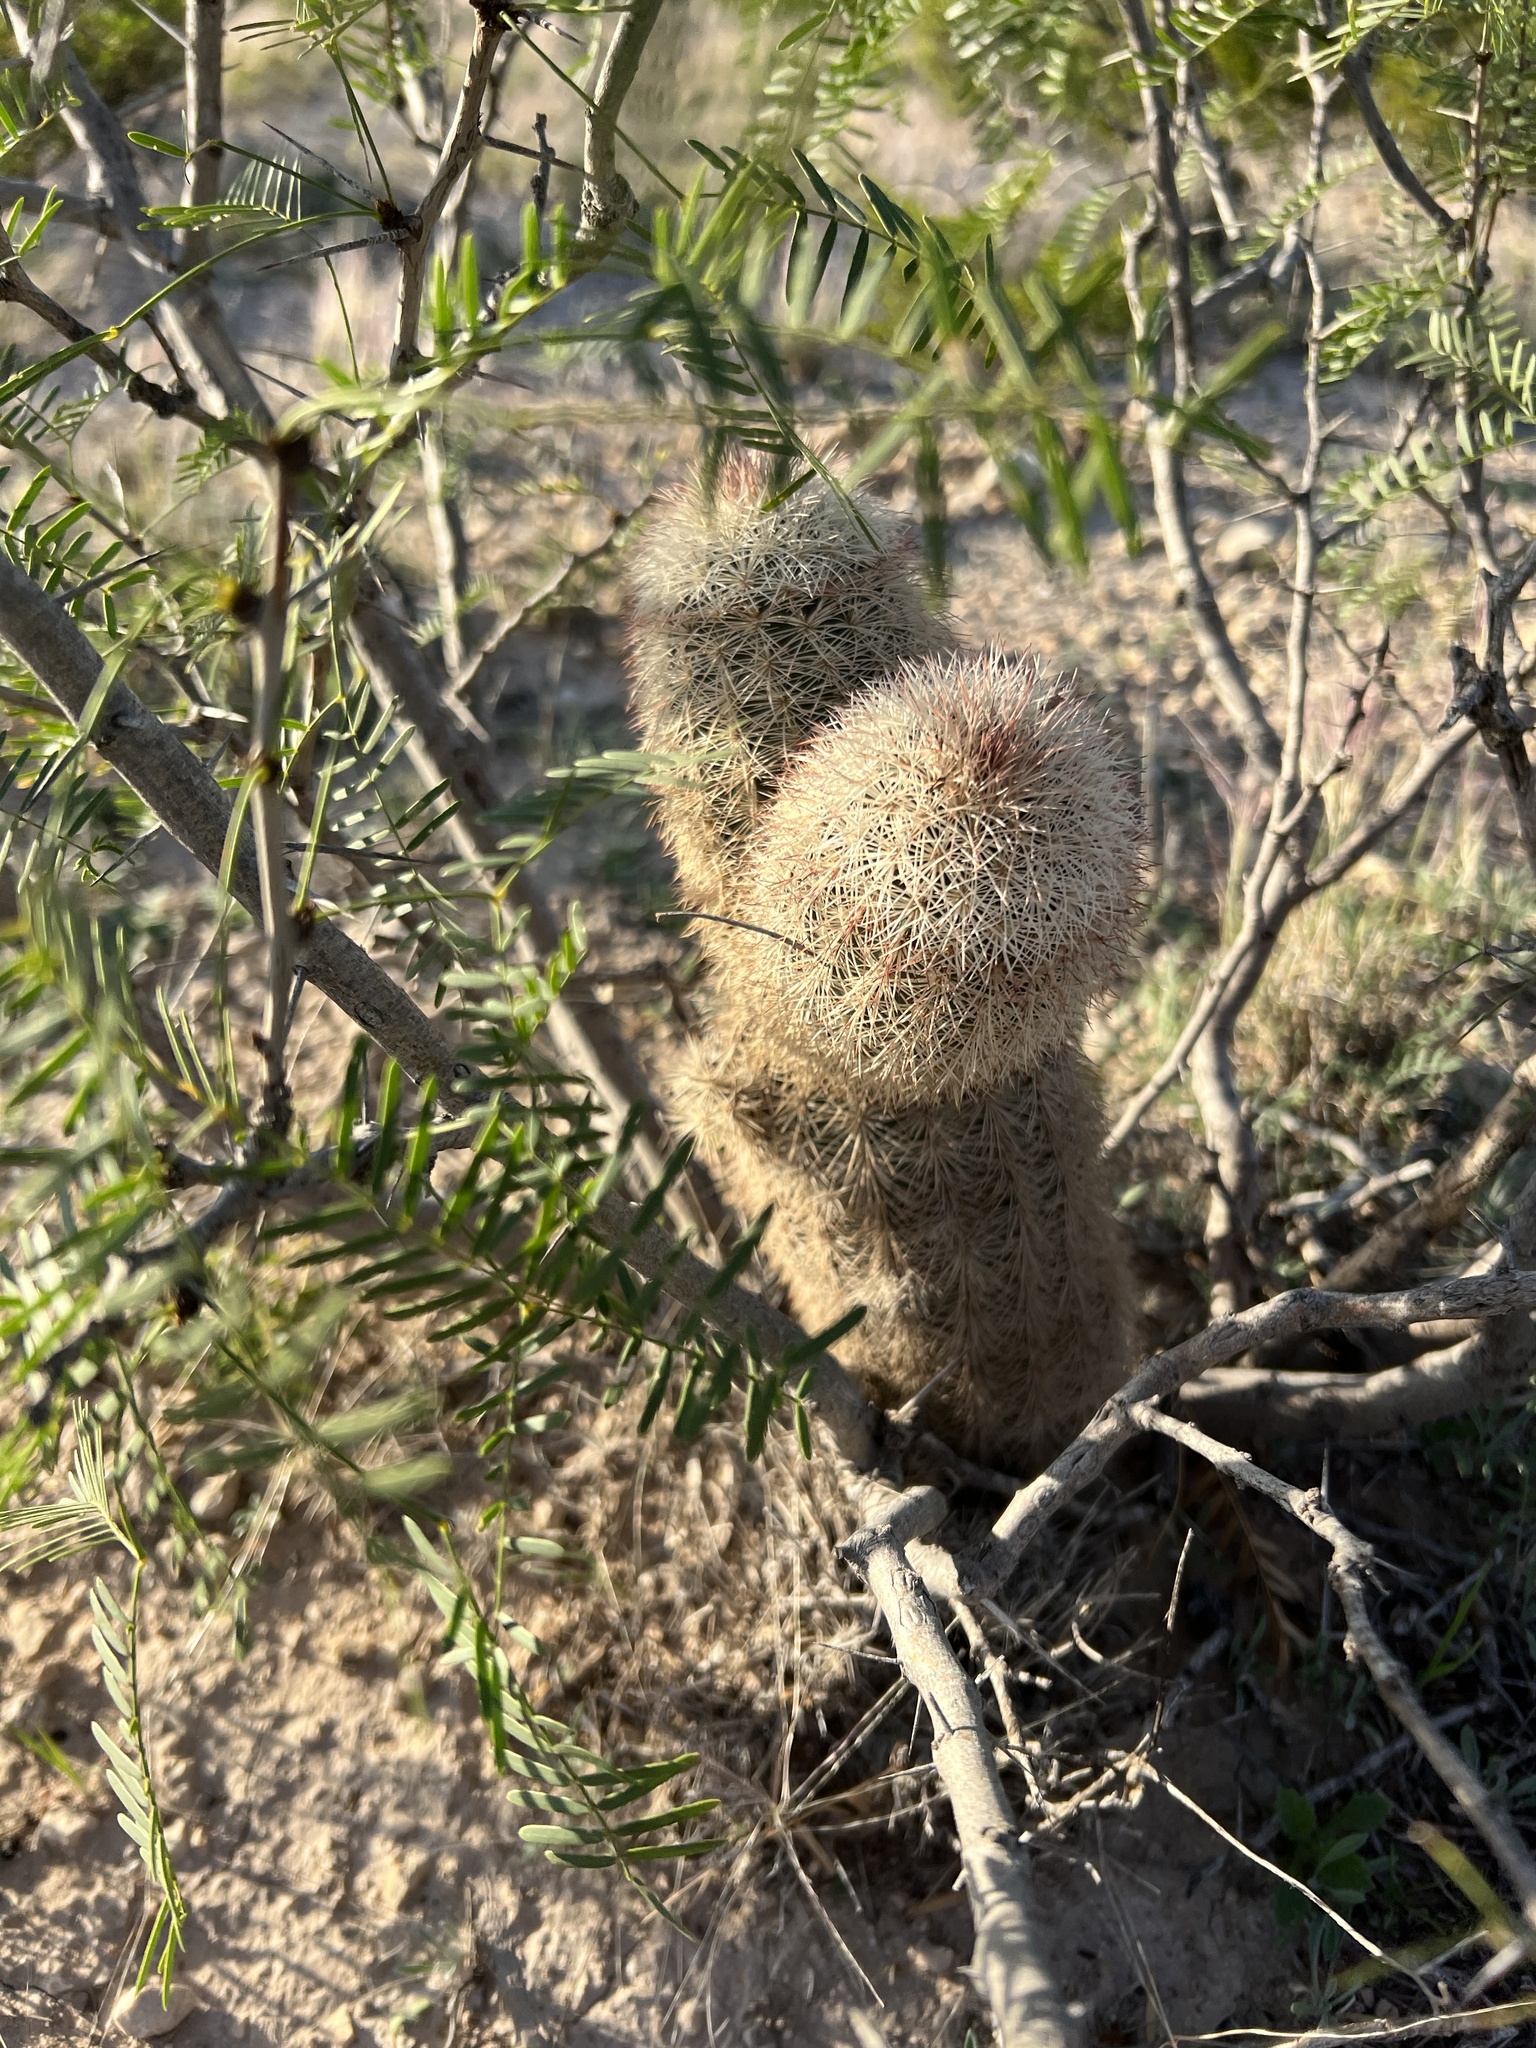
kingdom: Plantae
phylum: Tracheophyta
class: Magnoliopsida
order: Caryophyllales
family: Cactaceae
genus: Echinocereus
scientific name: Echinocereus dasyacanthus
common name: Spiny hedgehog cactus
